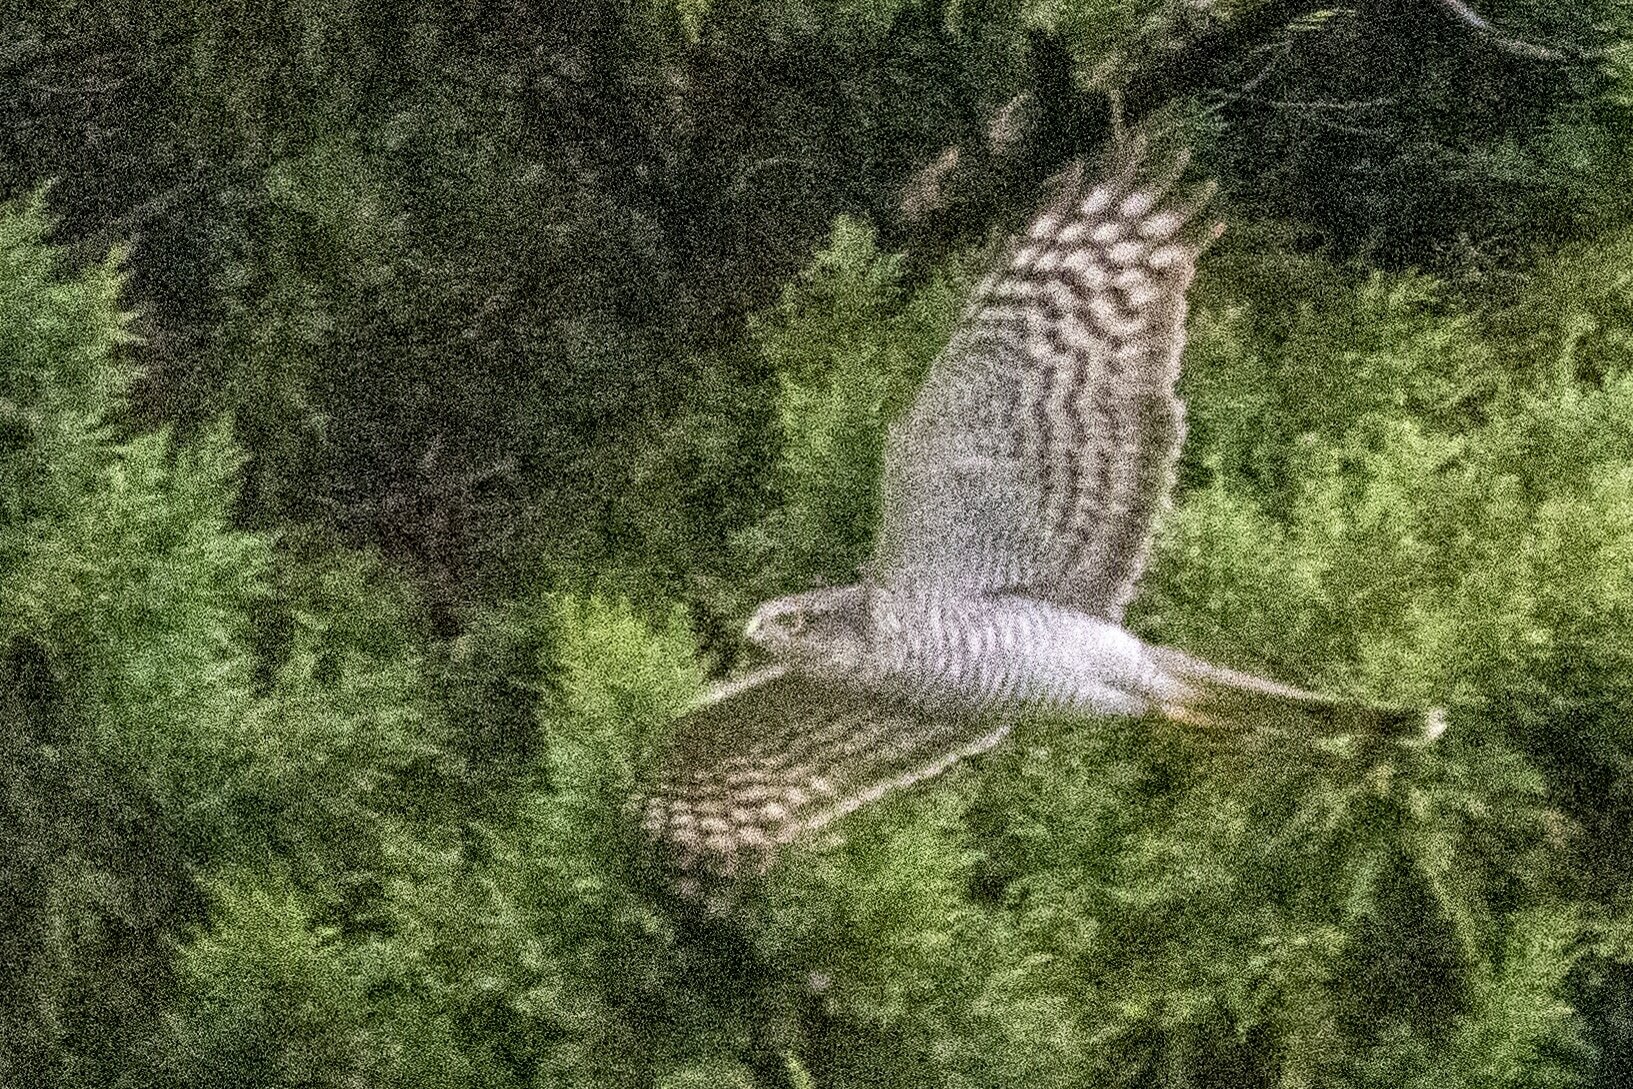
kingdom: Animalia
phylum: Chordata
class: Aves
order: Accipitriformes
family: Accipitridae
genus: Accipiter
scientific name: Accipiter nisus
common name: Eurasian sparrowhawk
